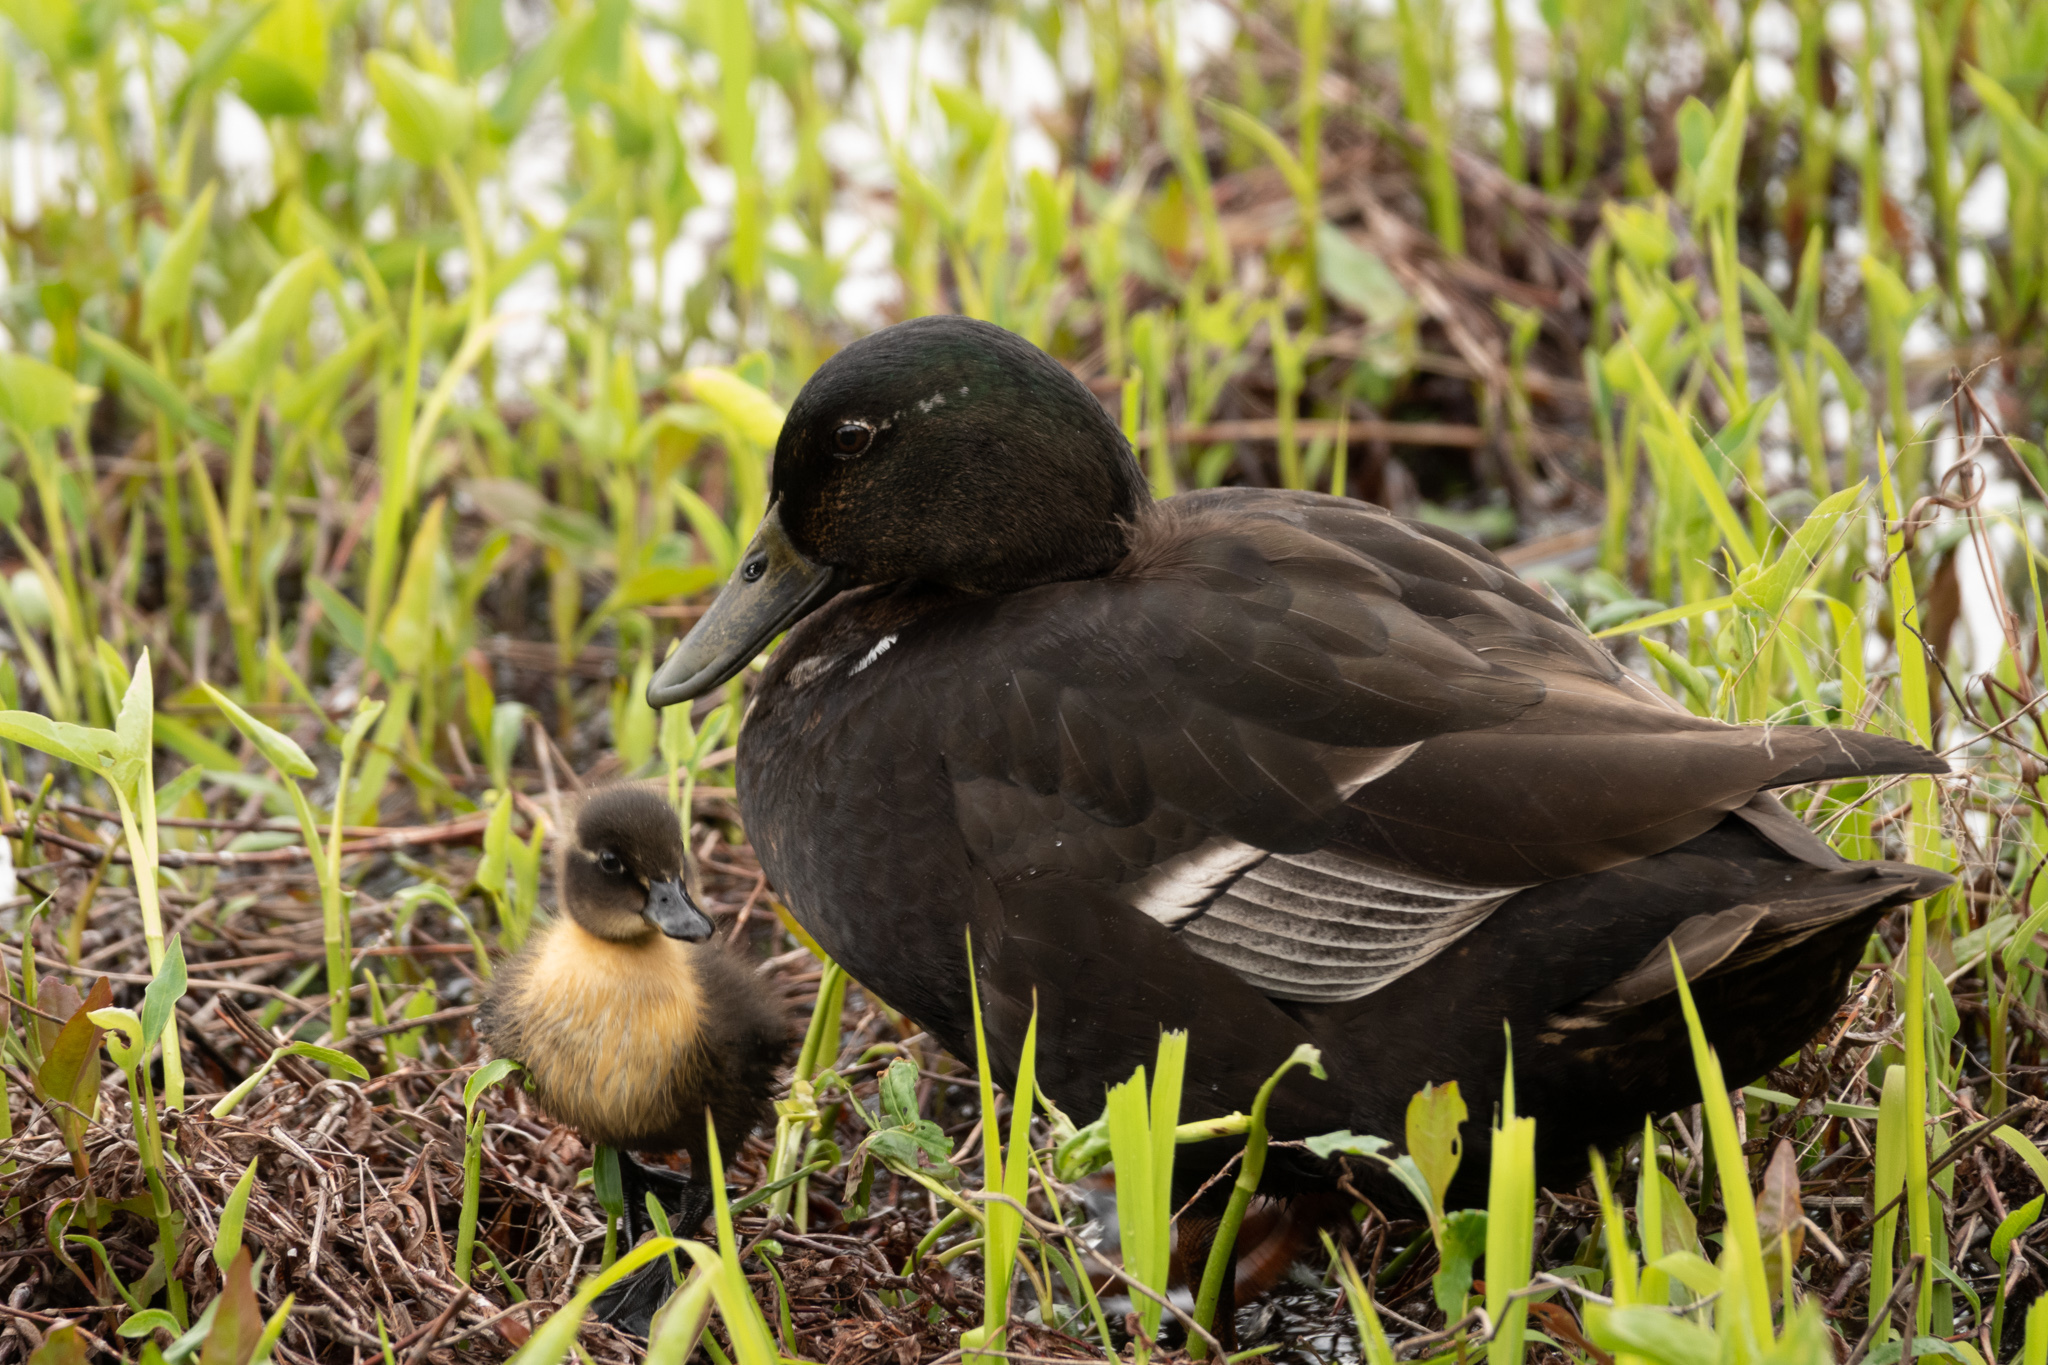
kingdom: Animalia
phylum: Chordata
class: Aves
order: Anseriformes
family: Anatidae
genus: Anas
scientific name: Anas platyrhynchos
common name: Mallard
